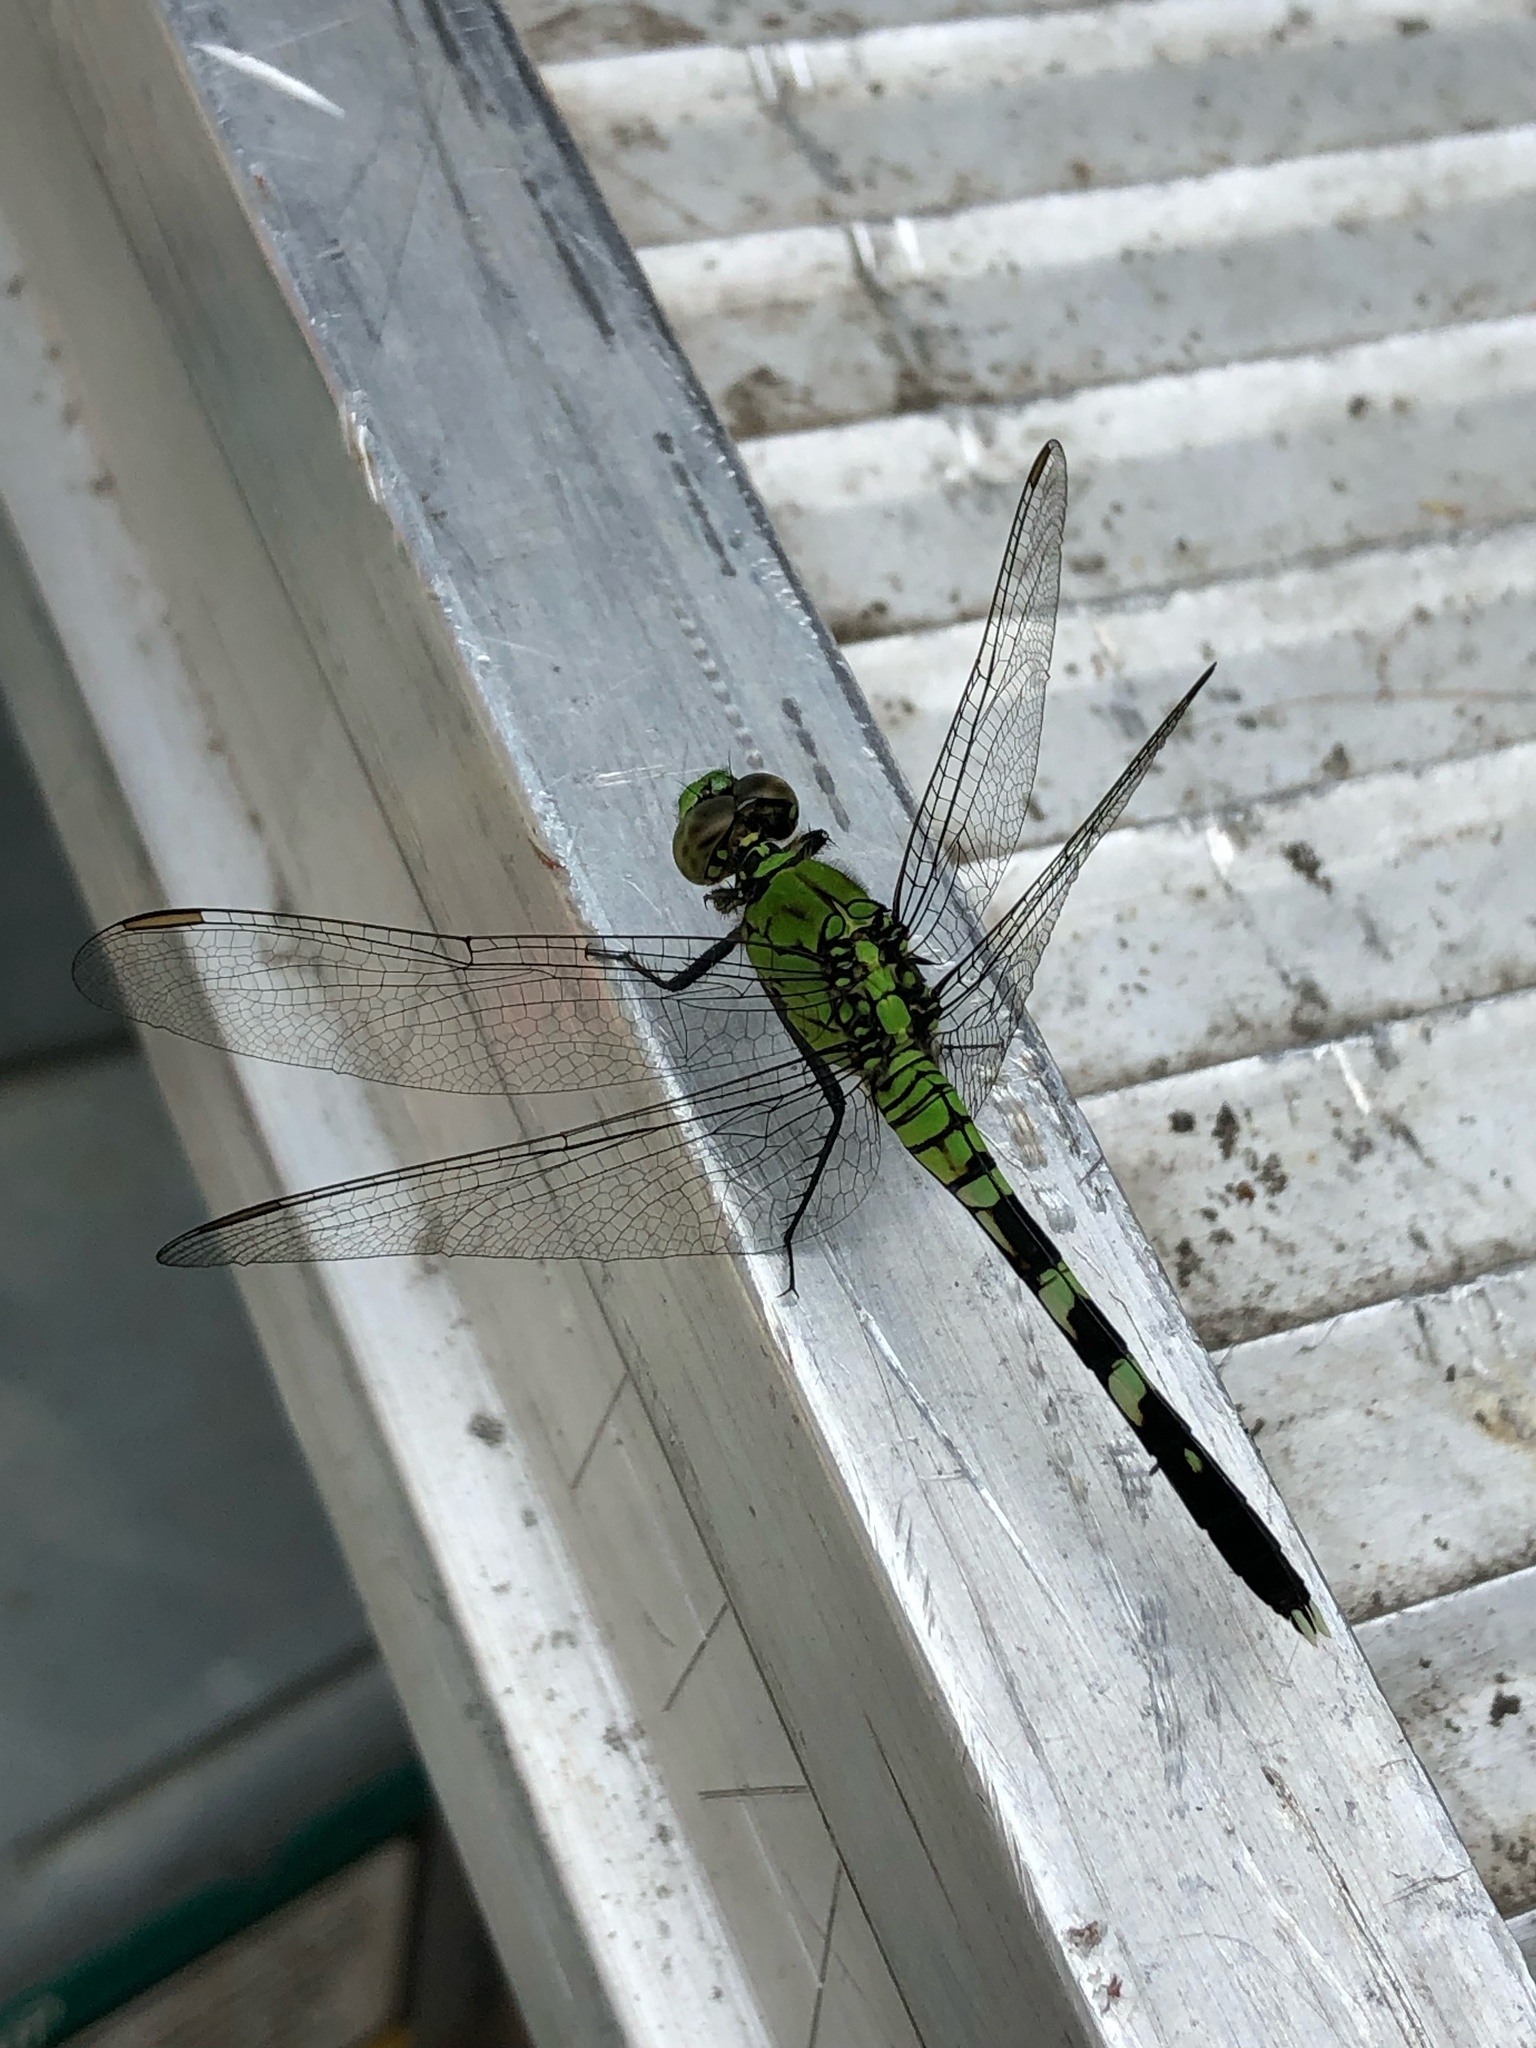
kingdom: Animalia
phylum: Arthropoda
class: Insecta
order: Odonata
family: Libellulidae
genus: Erythemis
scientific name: Erythemis simplicicollis
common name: Eastern pondhawk
